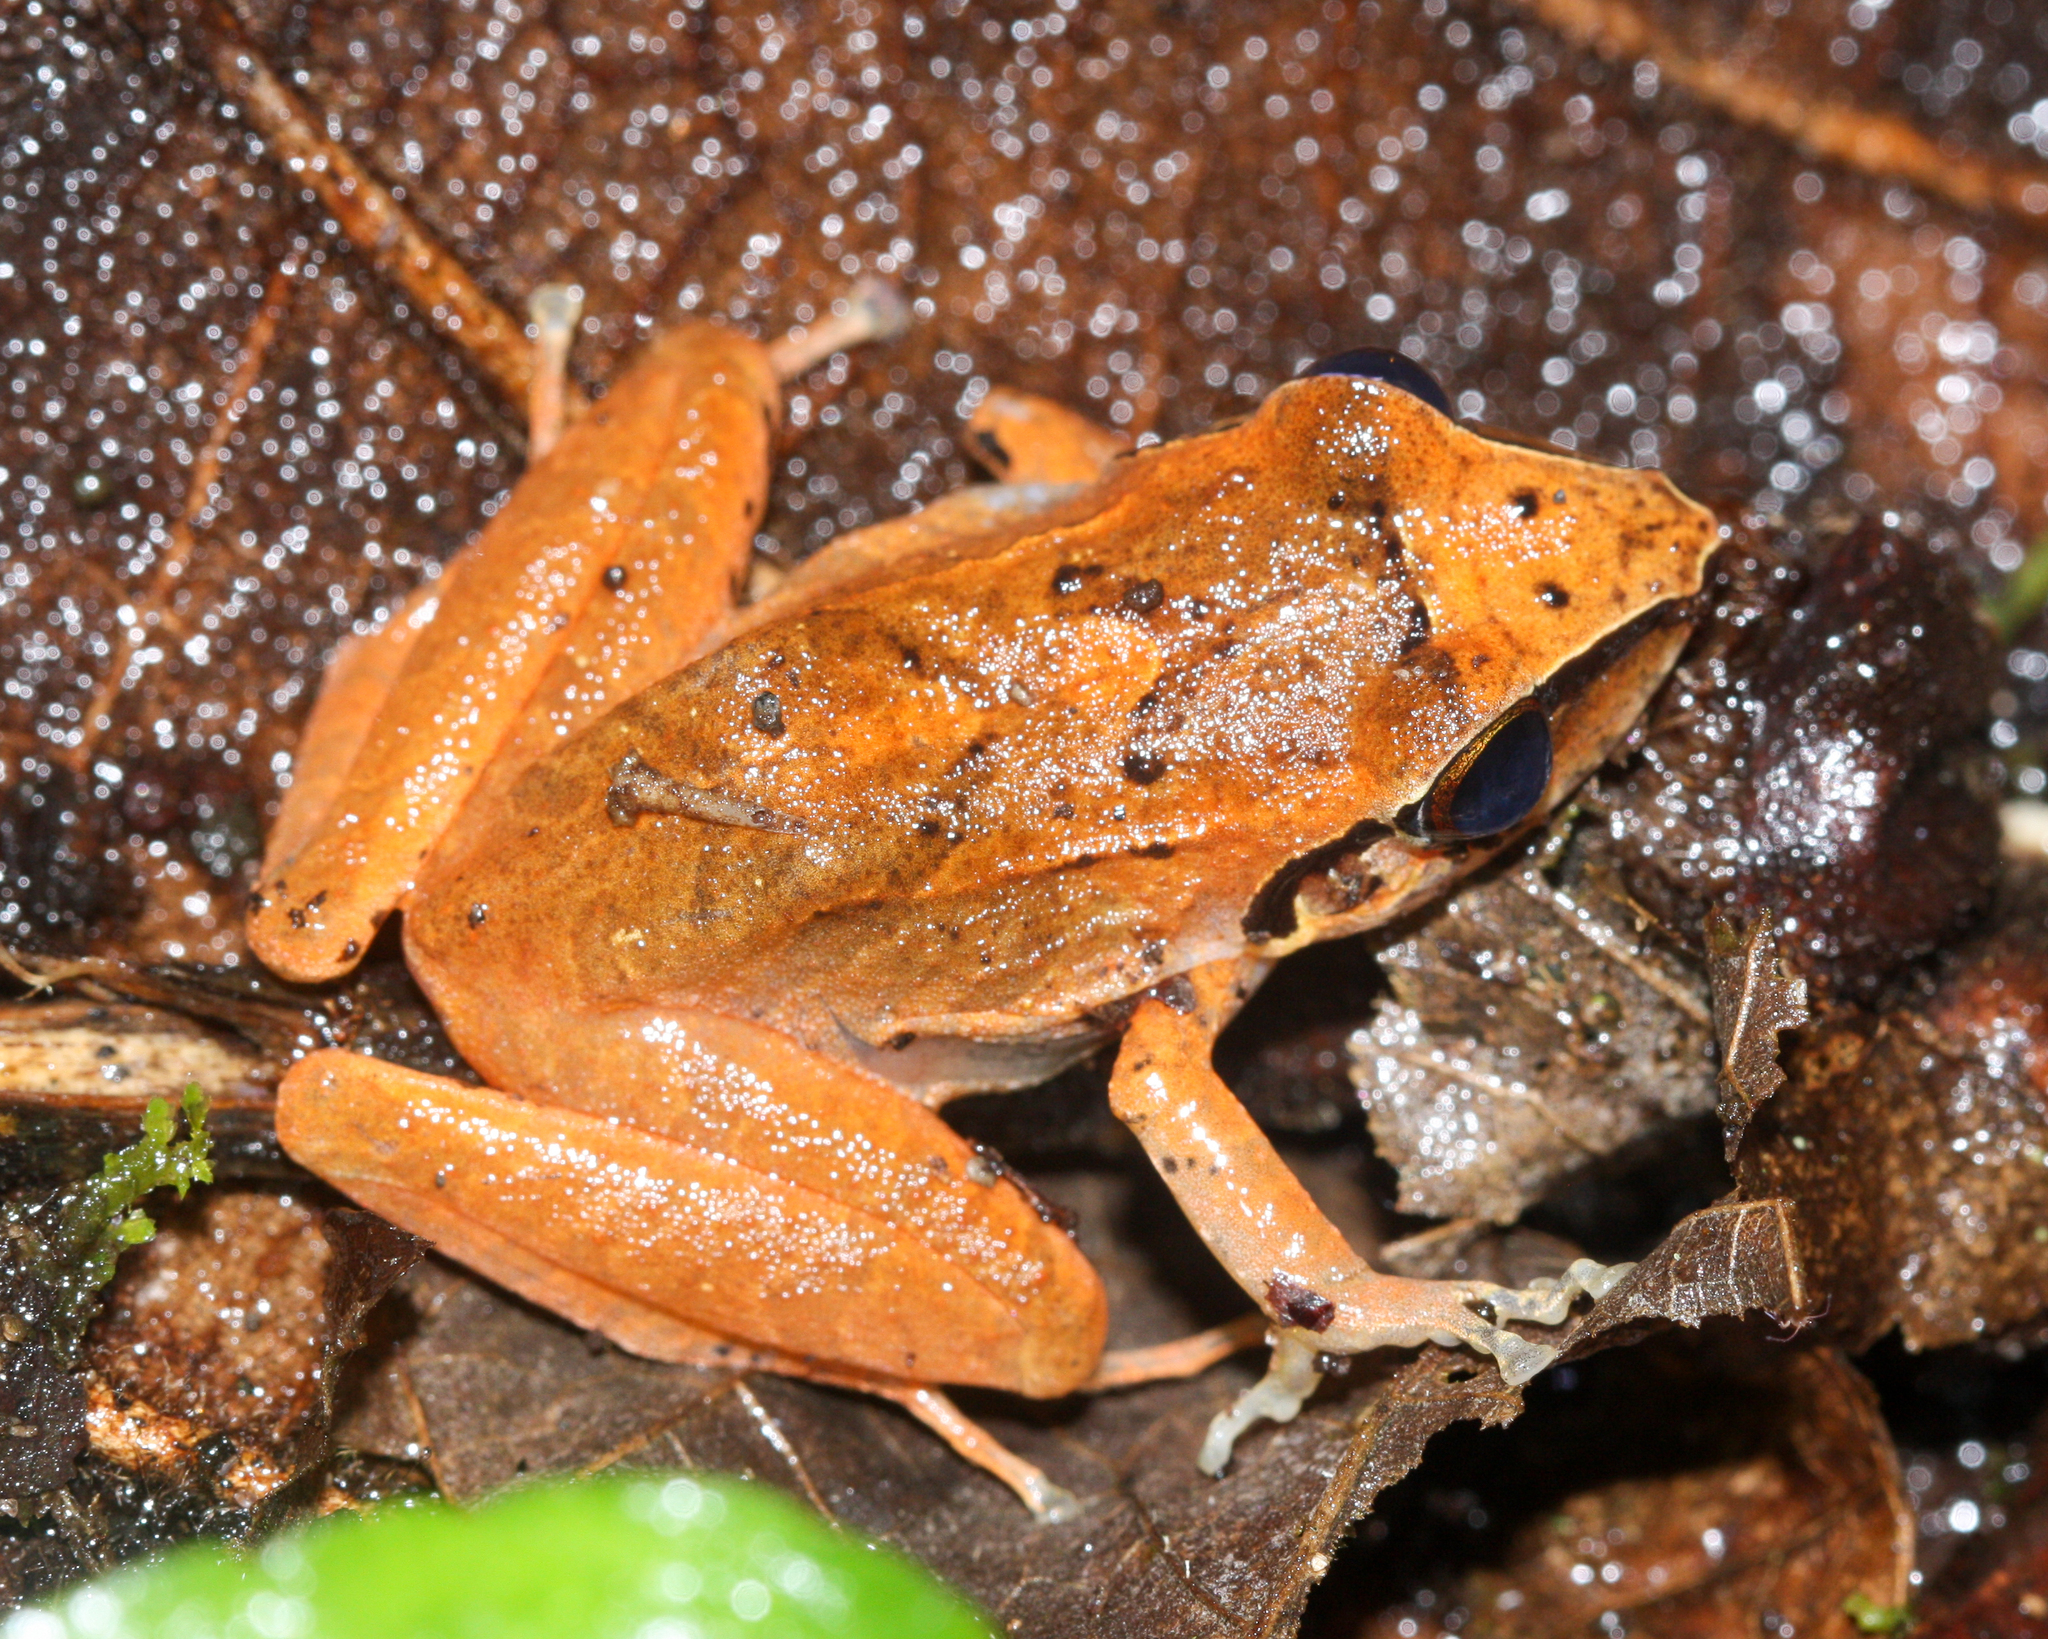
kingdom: Animalia
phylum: Chordata
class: Amphibia
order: Anura
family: Craugastoridae
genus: Pristimantis
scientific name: Pristimantis achatinus
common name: Cachabi robber frog
